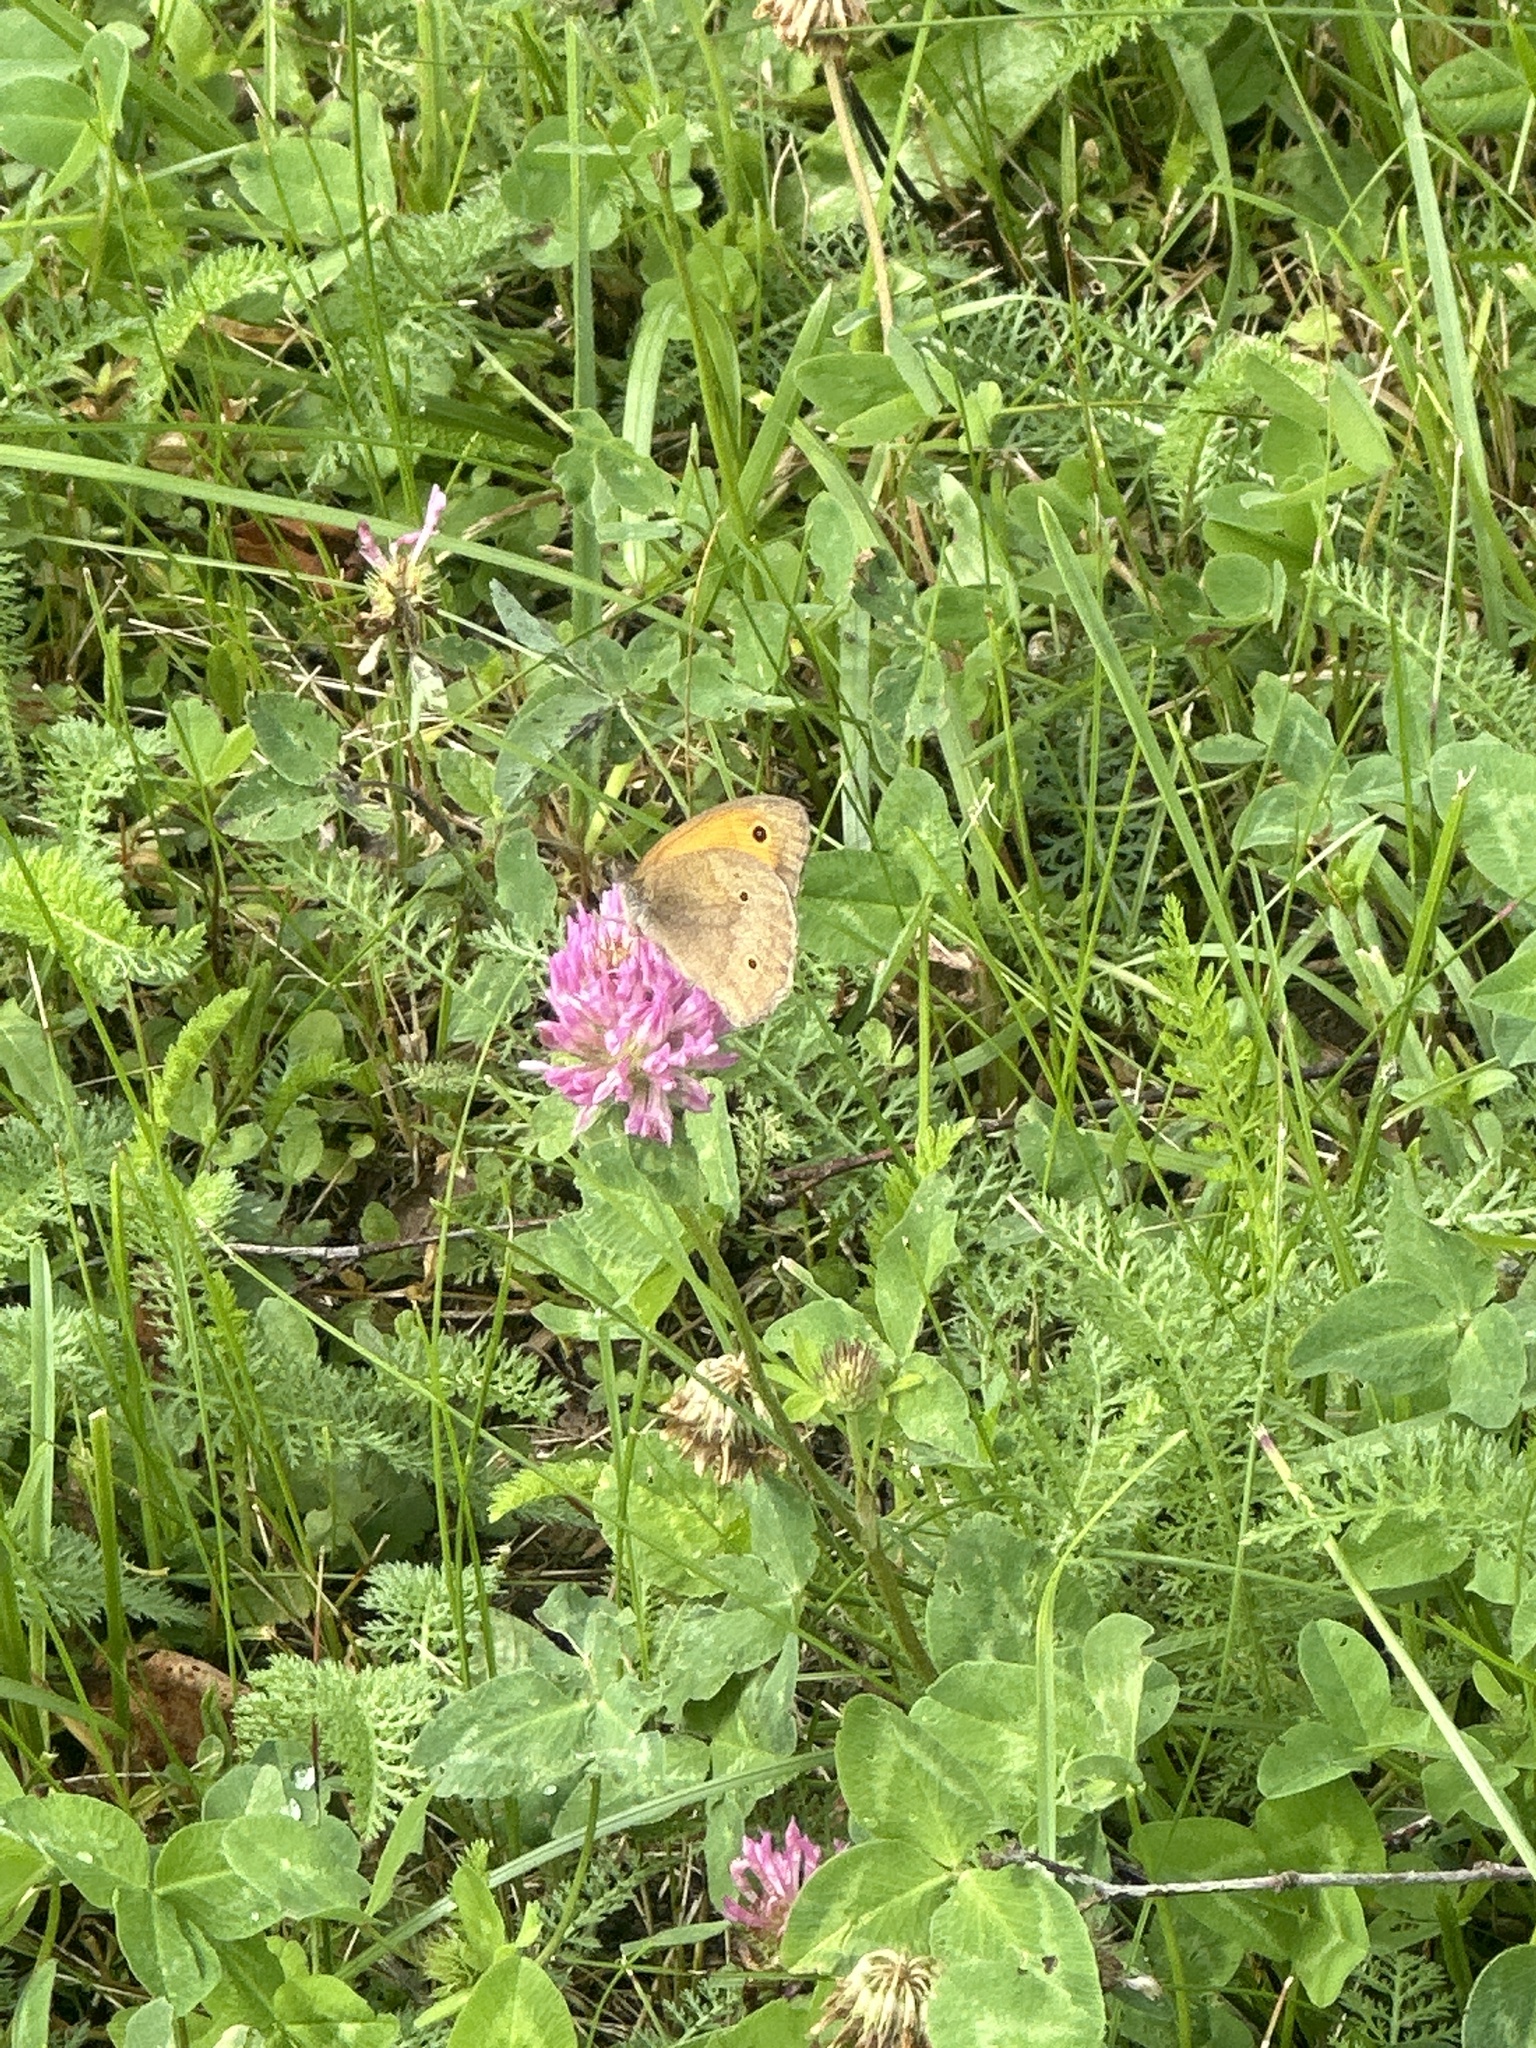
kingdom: Animalia
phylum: Arthropoda
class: Insecta
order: Lepidoptera
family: Nymphalidae
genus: Maniola
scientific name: Maniola jurtina
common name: Meadow brown
